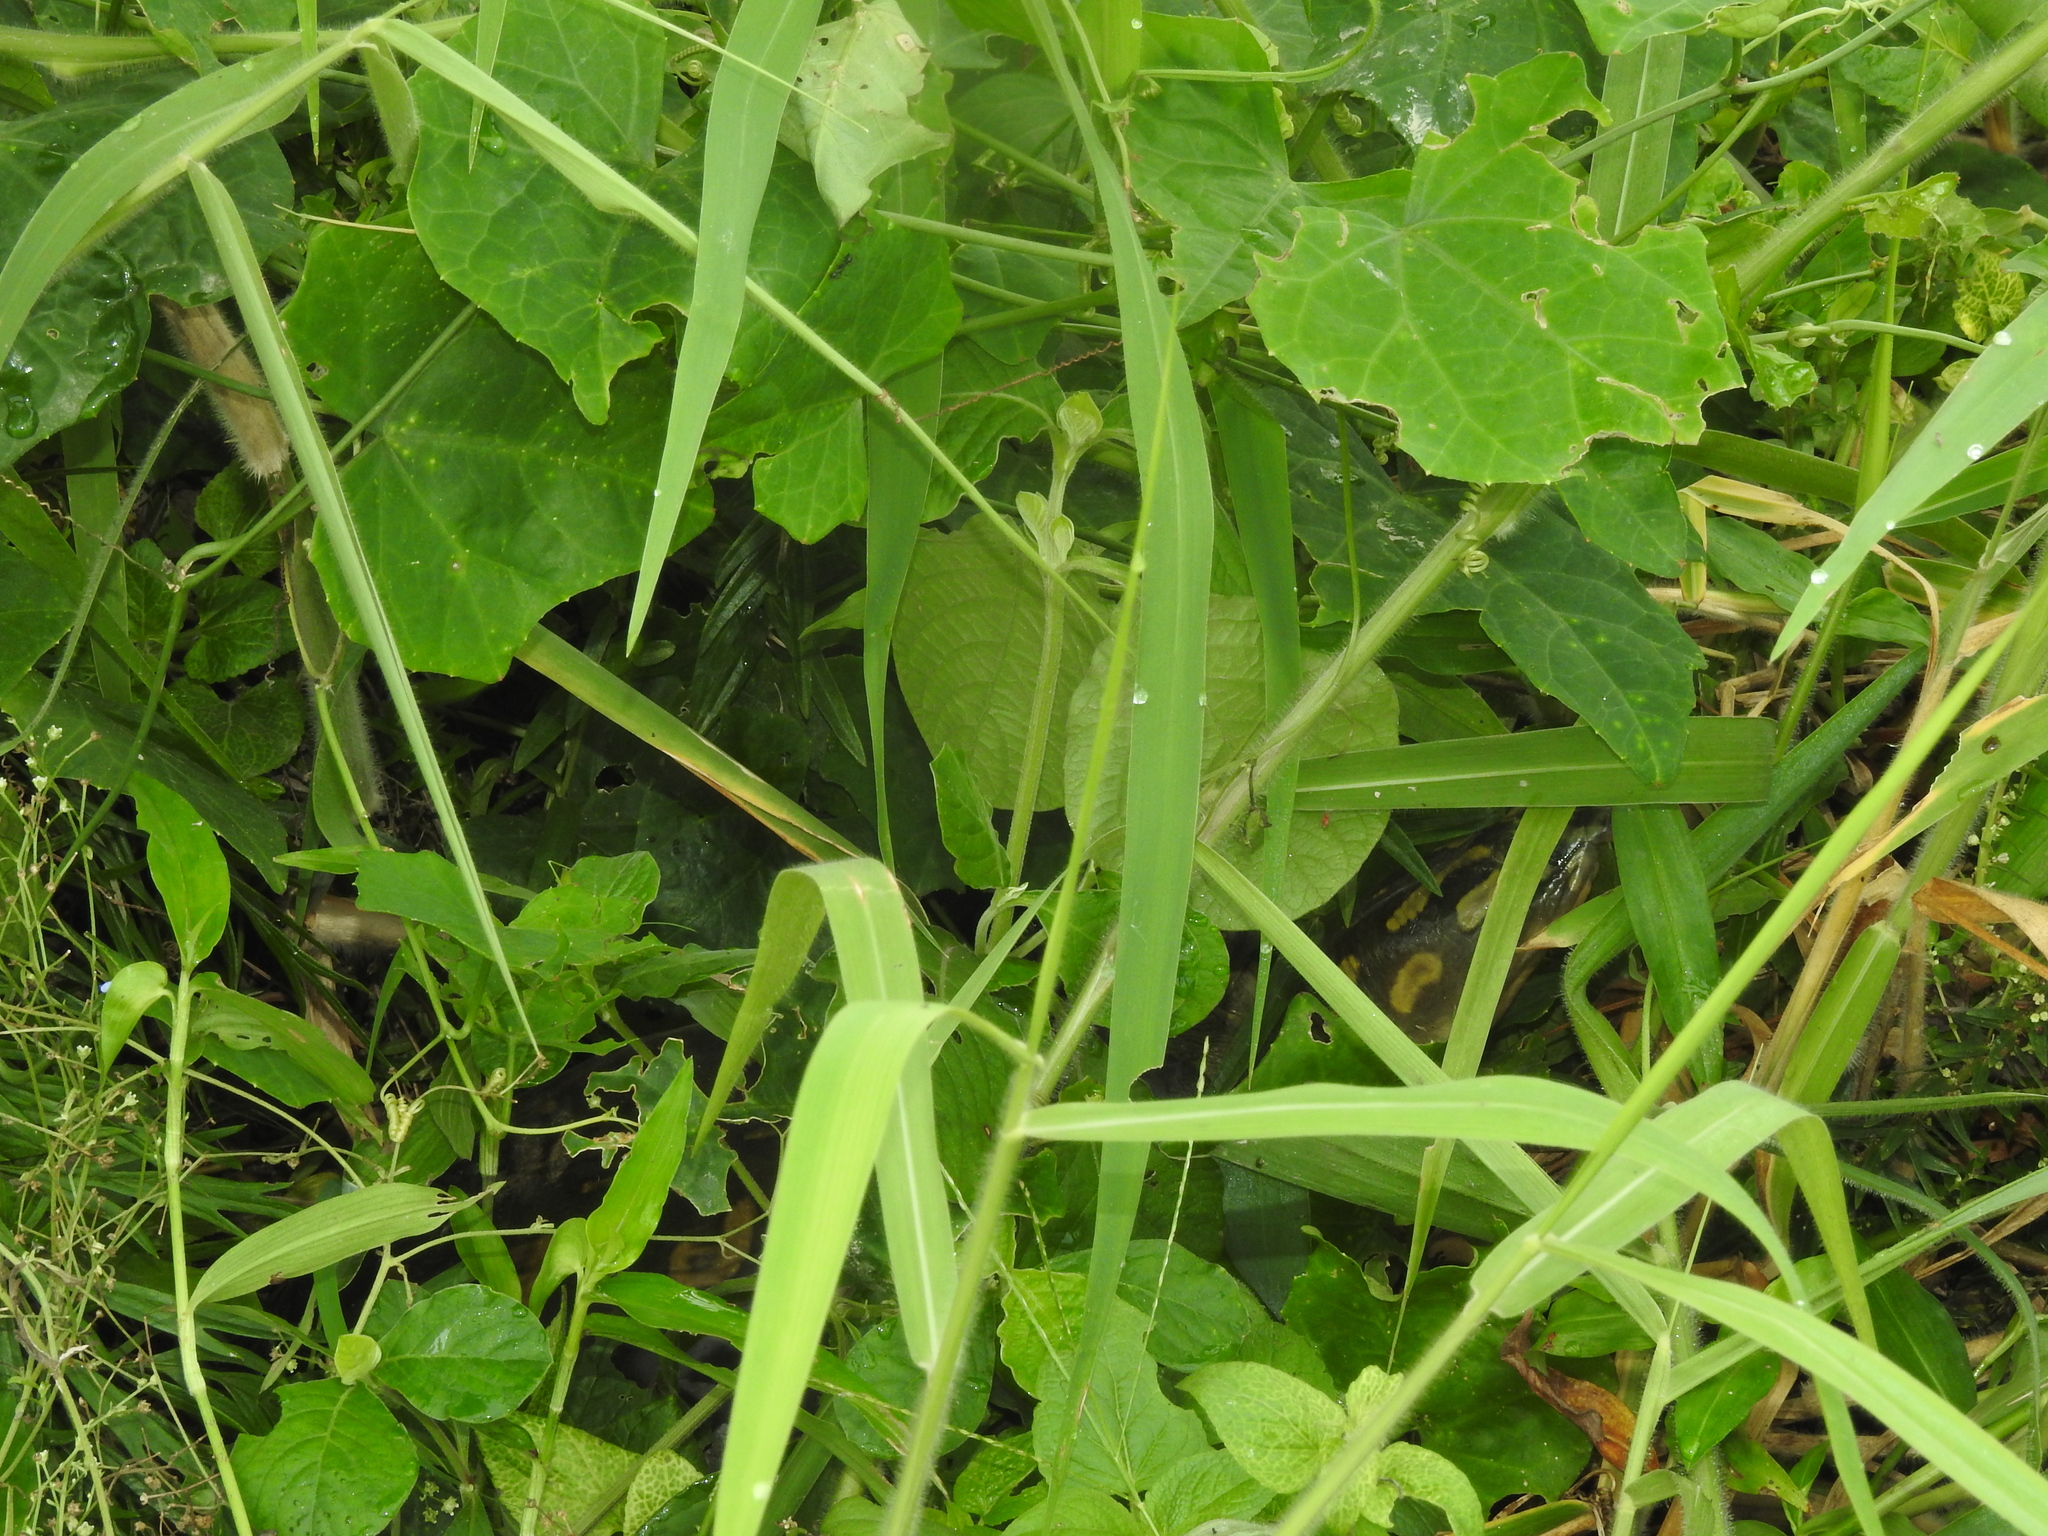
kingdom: Animalia
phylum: Chordata
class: Testudines
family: Trionychidae
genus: Lissemys
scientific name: Lissemys punctata
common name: Indian flap-shelled turtle
